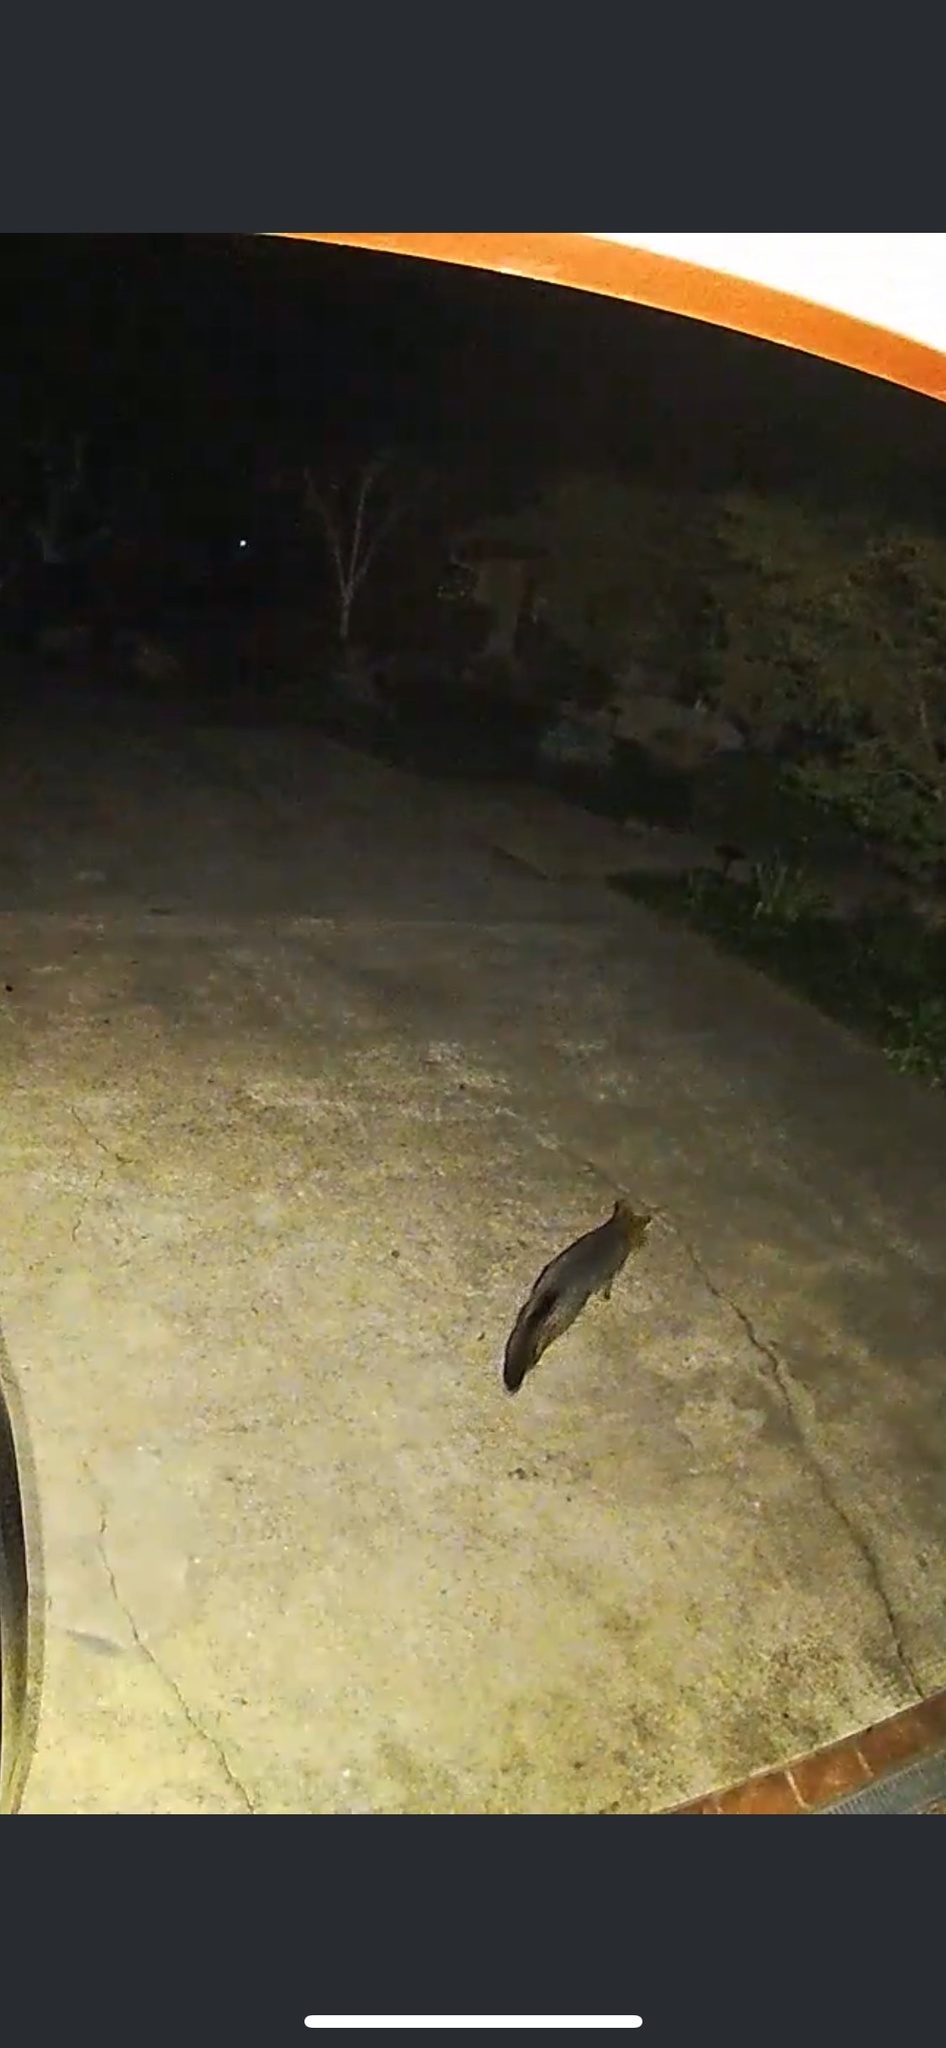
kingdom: Animalia
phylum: Chordata
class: Mammalia
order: Carnivora
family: Canidae
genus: Urocyon
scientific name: Urocyon cinereoargenteus
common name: Gray fox
